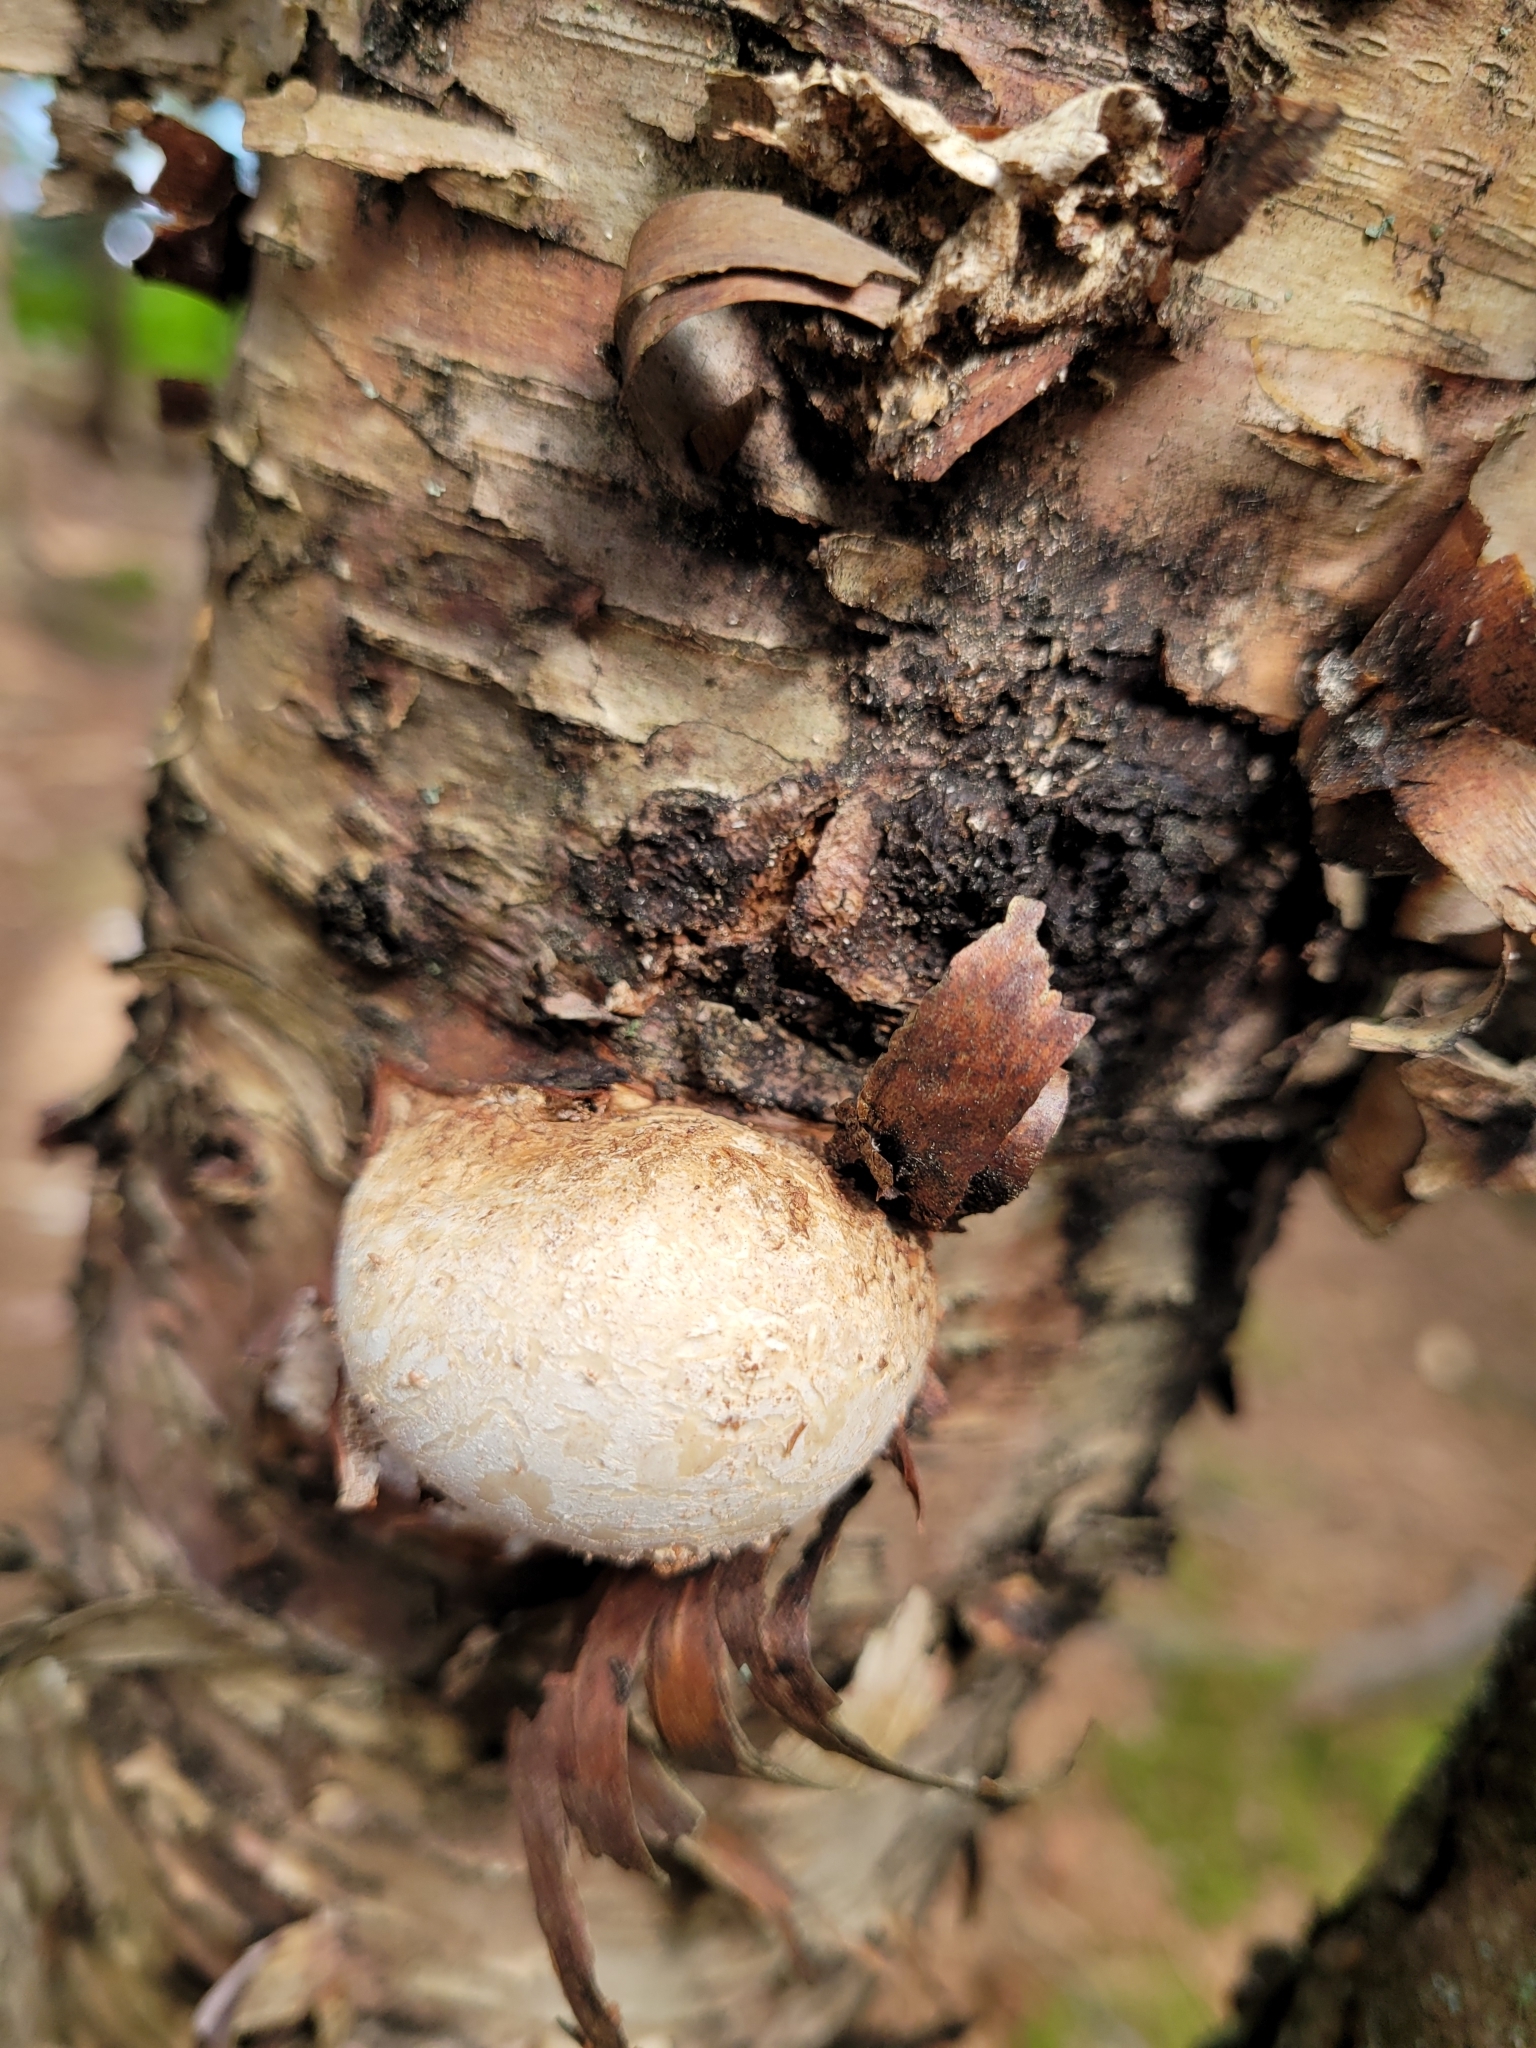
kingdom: Fungi
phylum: Basidiomycota
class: Agaricomycetes
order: Polyporales
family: Fomitopsidaceae
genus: Fomitopsis
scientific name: Fomitopsis betulina
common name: Birch polypore
